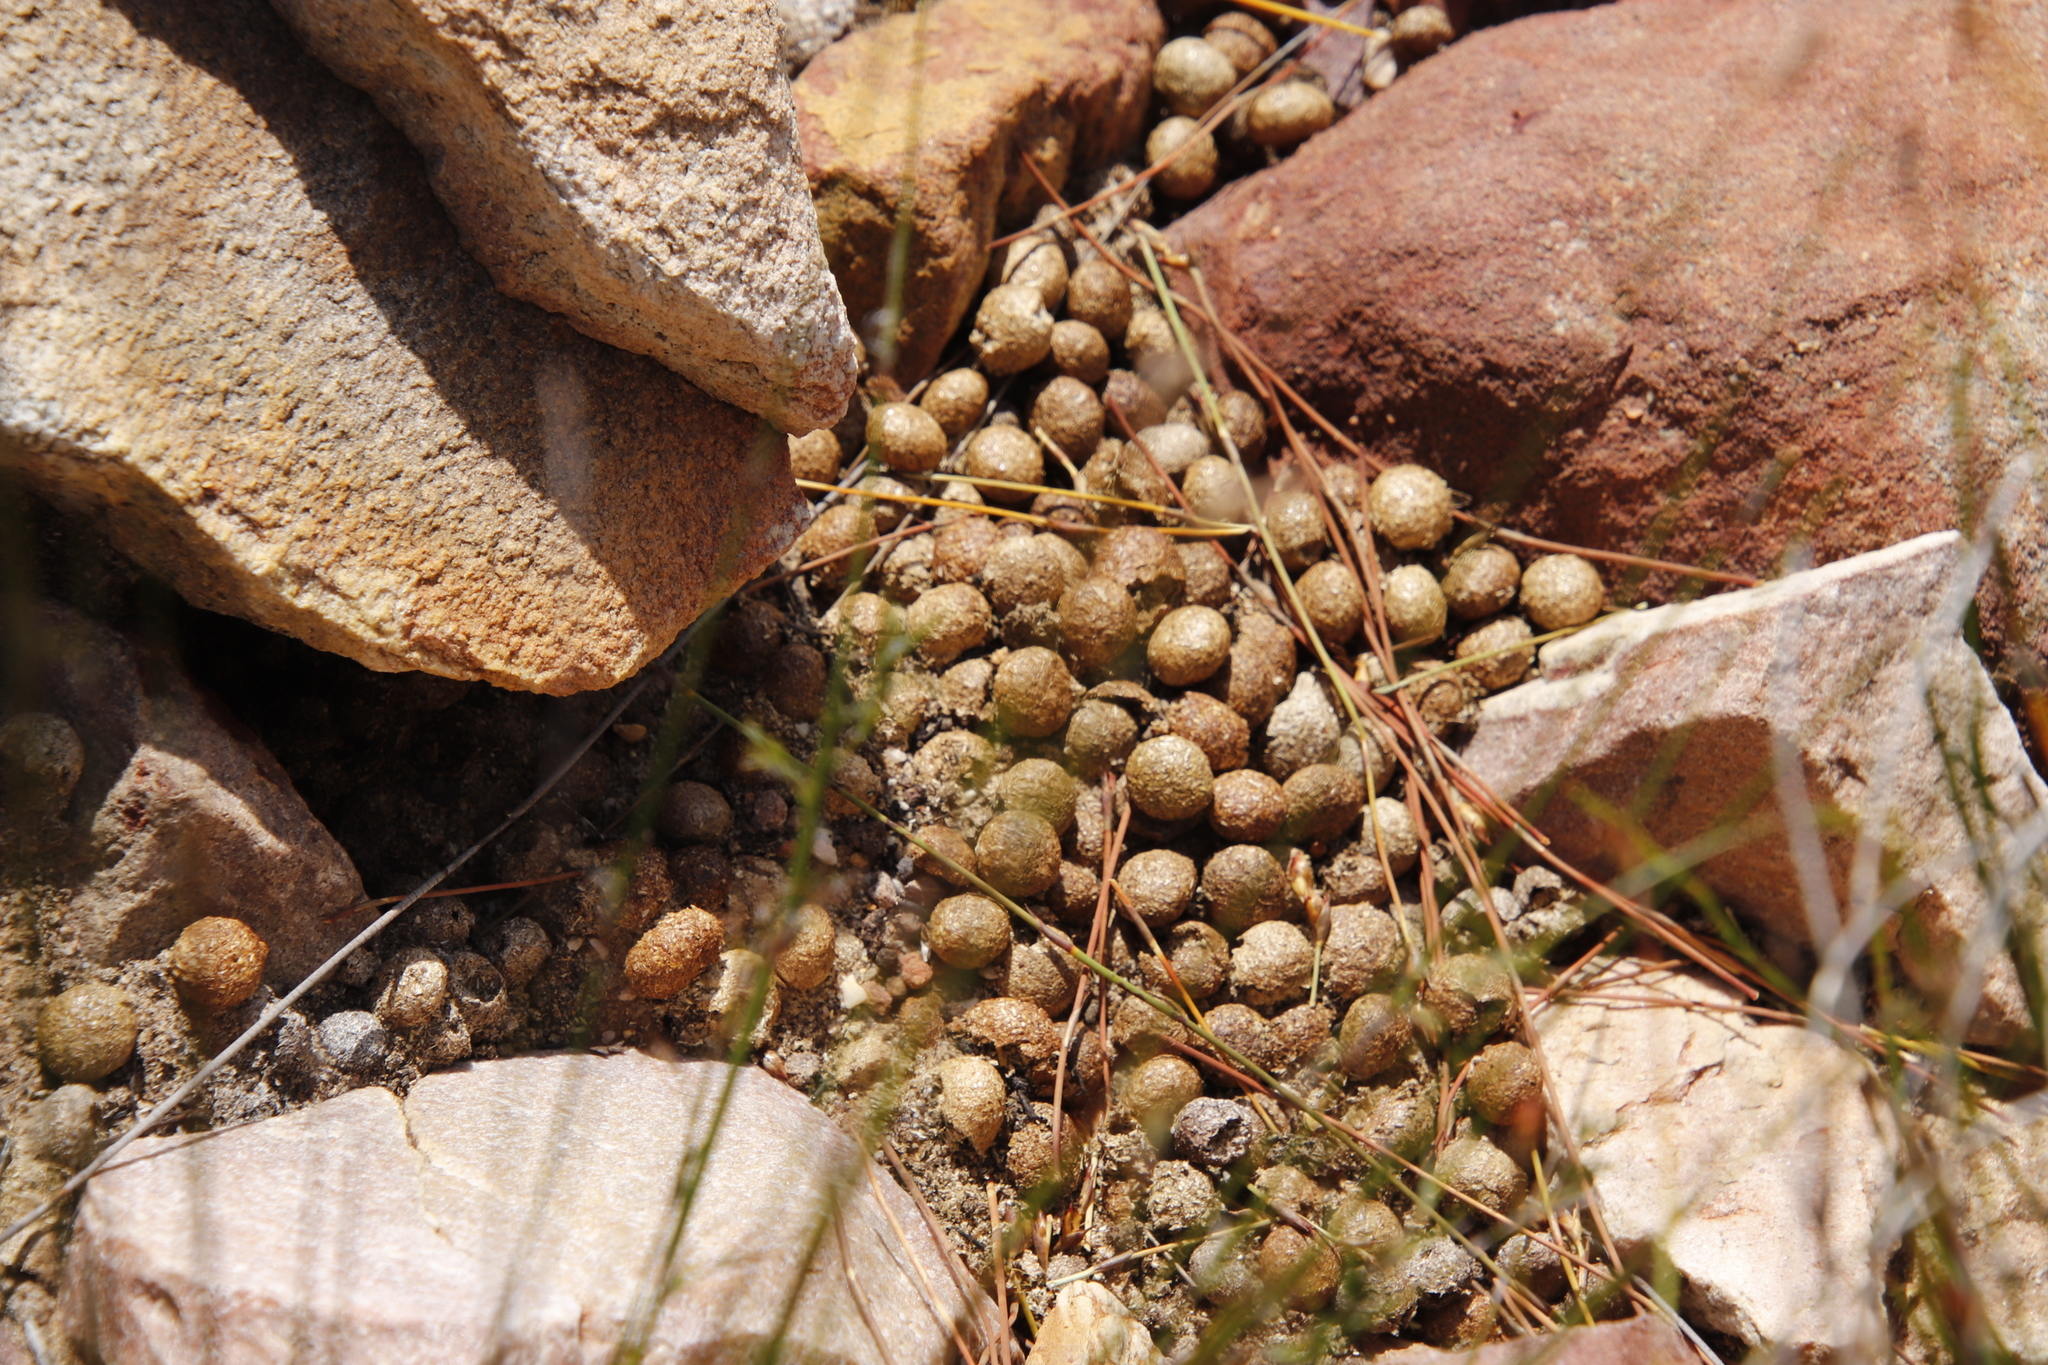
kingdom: Animalia
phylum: Chordata
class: Mammalia
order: Lagomorpha
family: Leporidae
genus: Pronolagus
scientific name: Pronolagus saundersiae
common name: Hewitt's red rock hare
